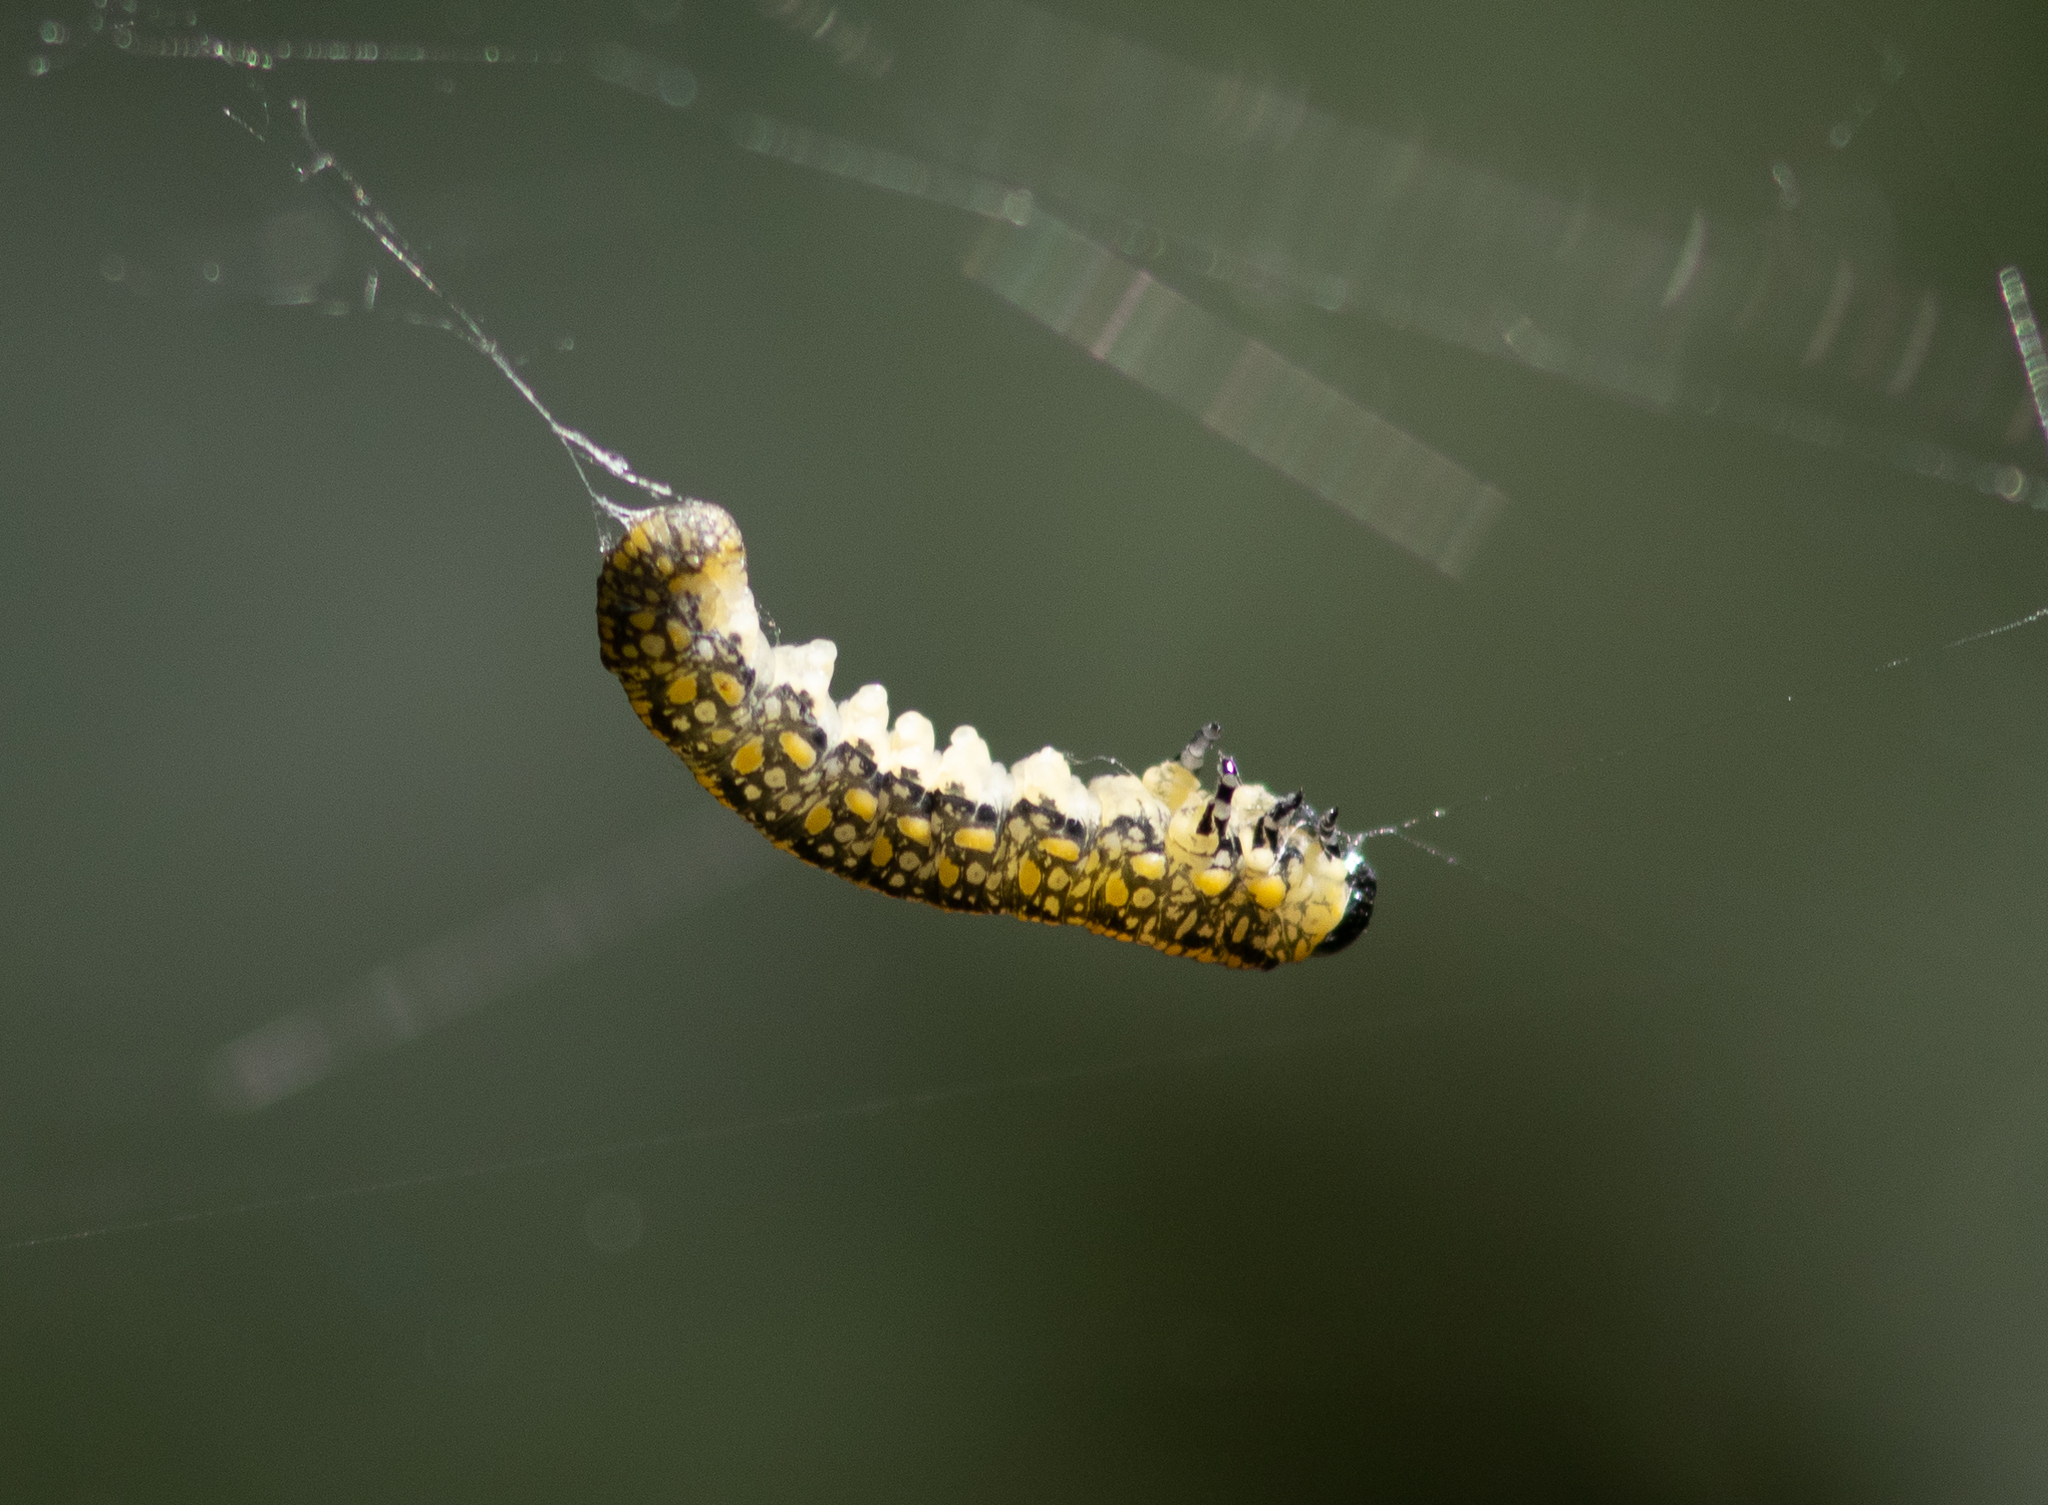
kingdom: Animalia
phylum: Arthropoda
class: Insecta
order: Hymenoptera
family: Diprionidae
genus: Diprion
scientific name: Diprion similis
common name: Pine sawfly
